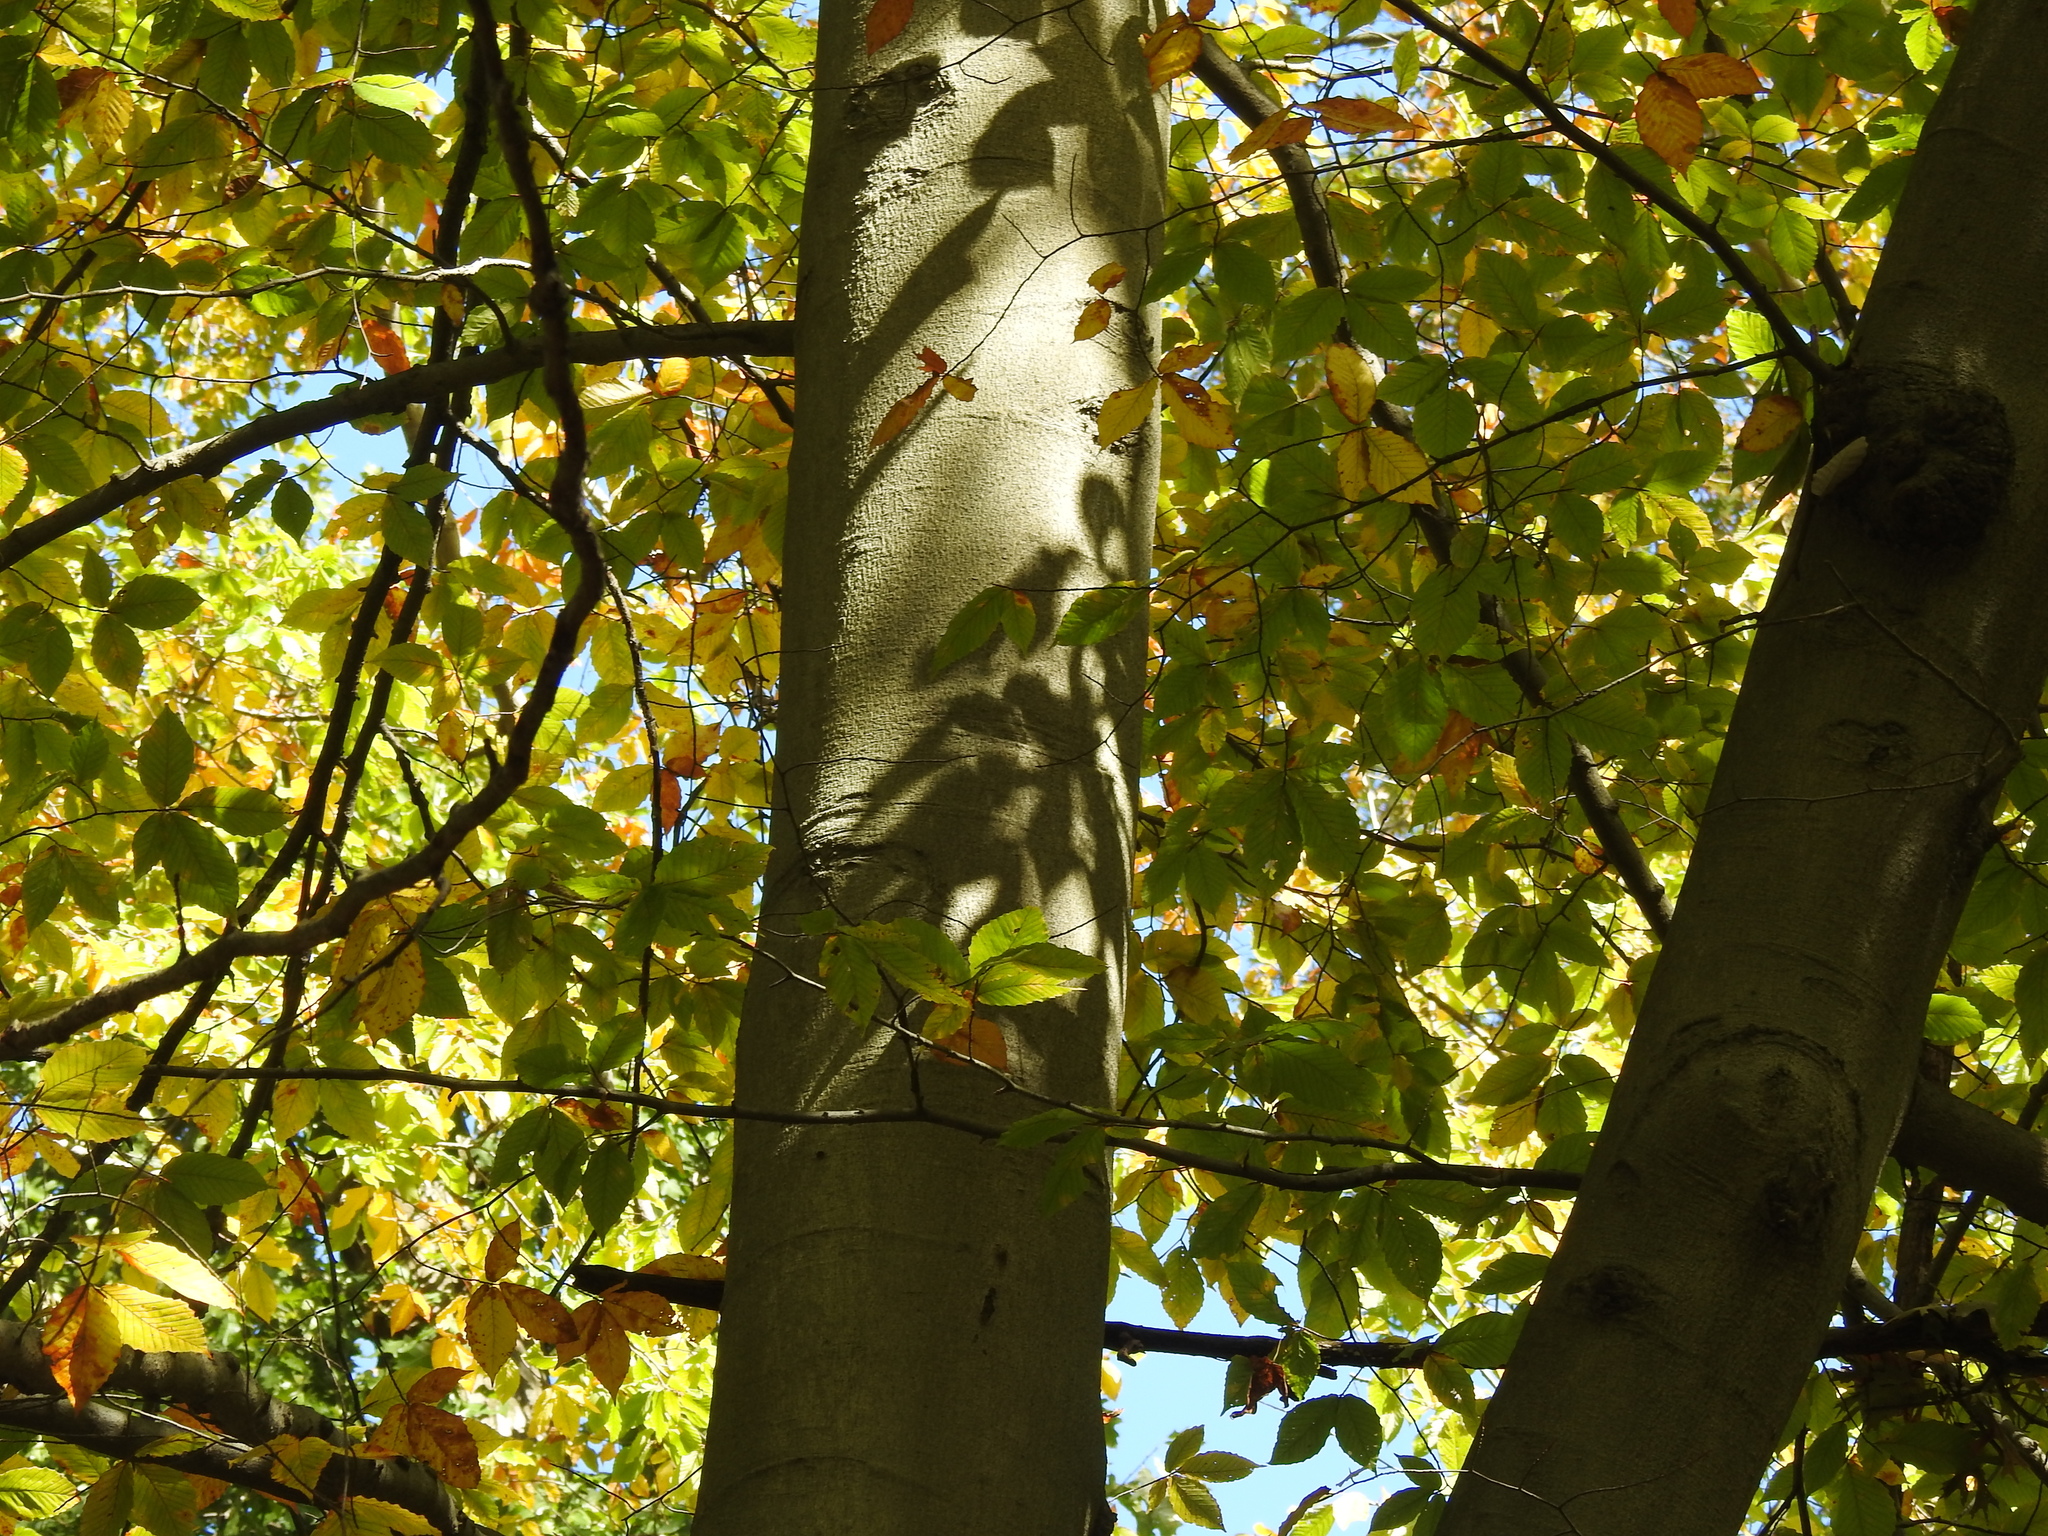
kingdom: Plantae
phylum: Tracheophyta
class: Magnoliopsida
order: Fagales
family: Fagaceae
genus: Fagus
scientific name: Fagus grandifolia
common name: American beech
